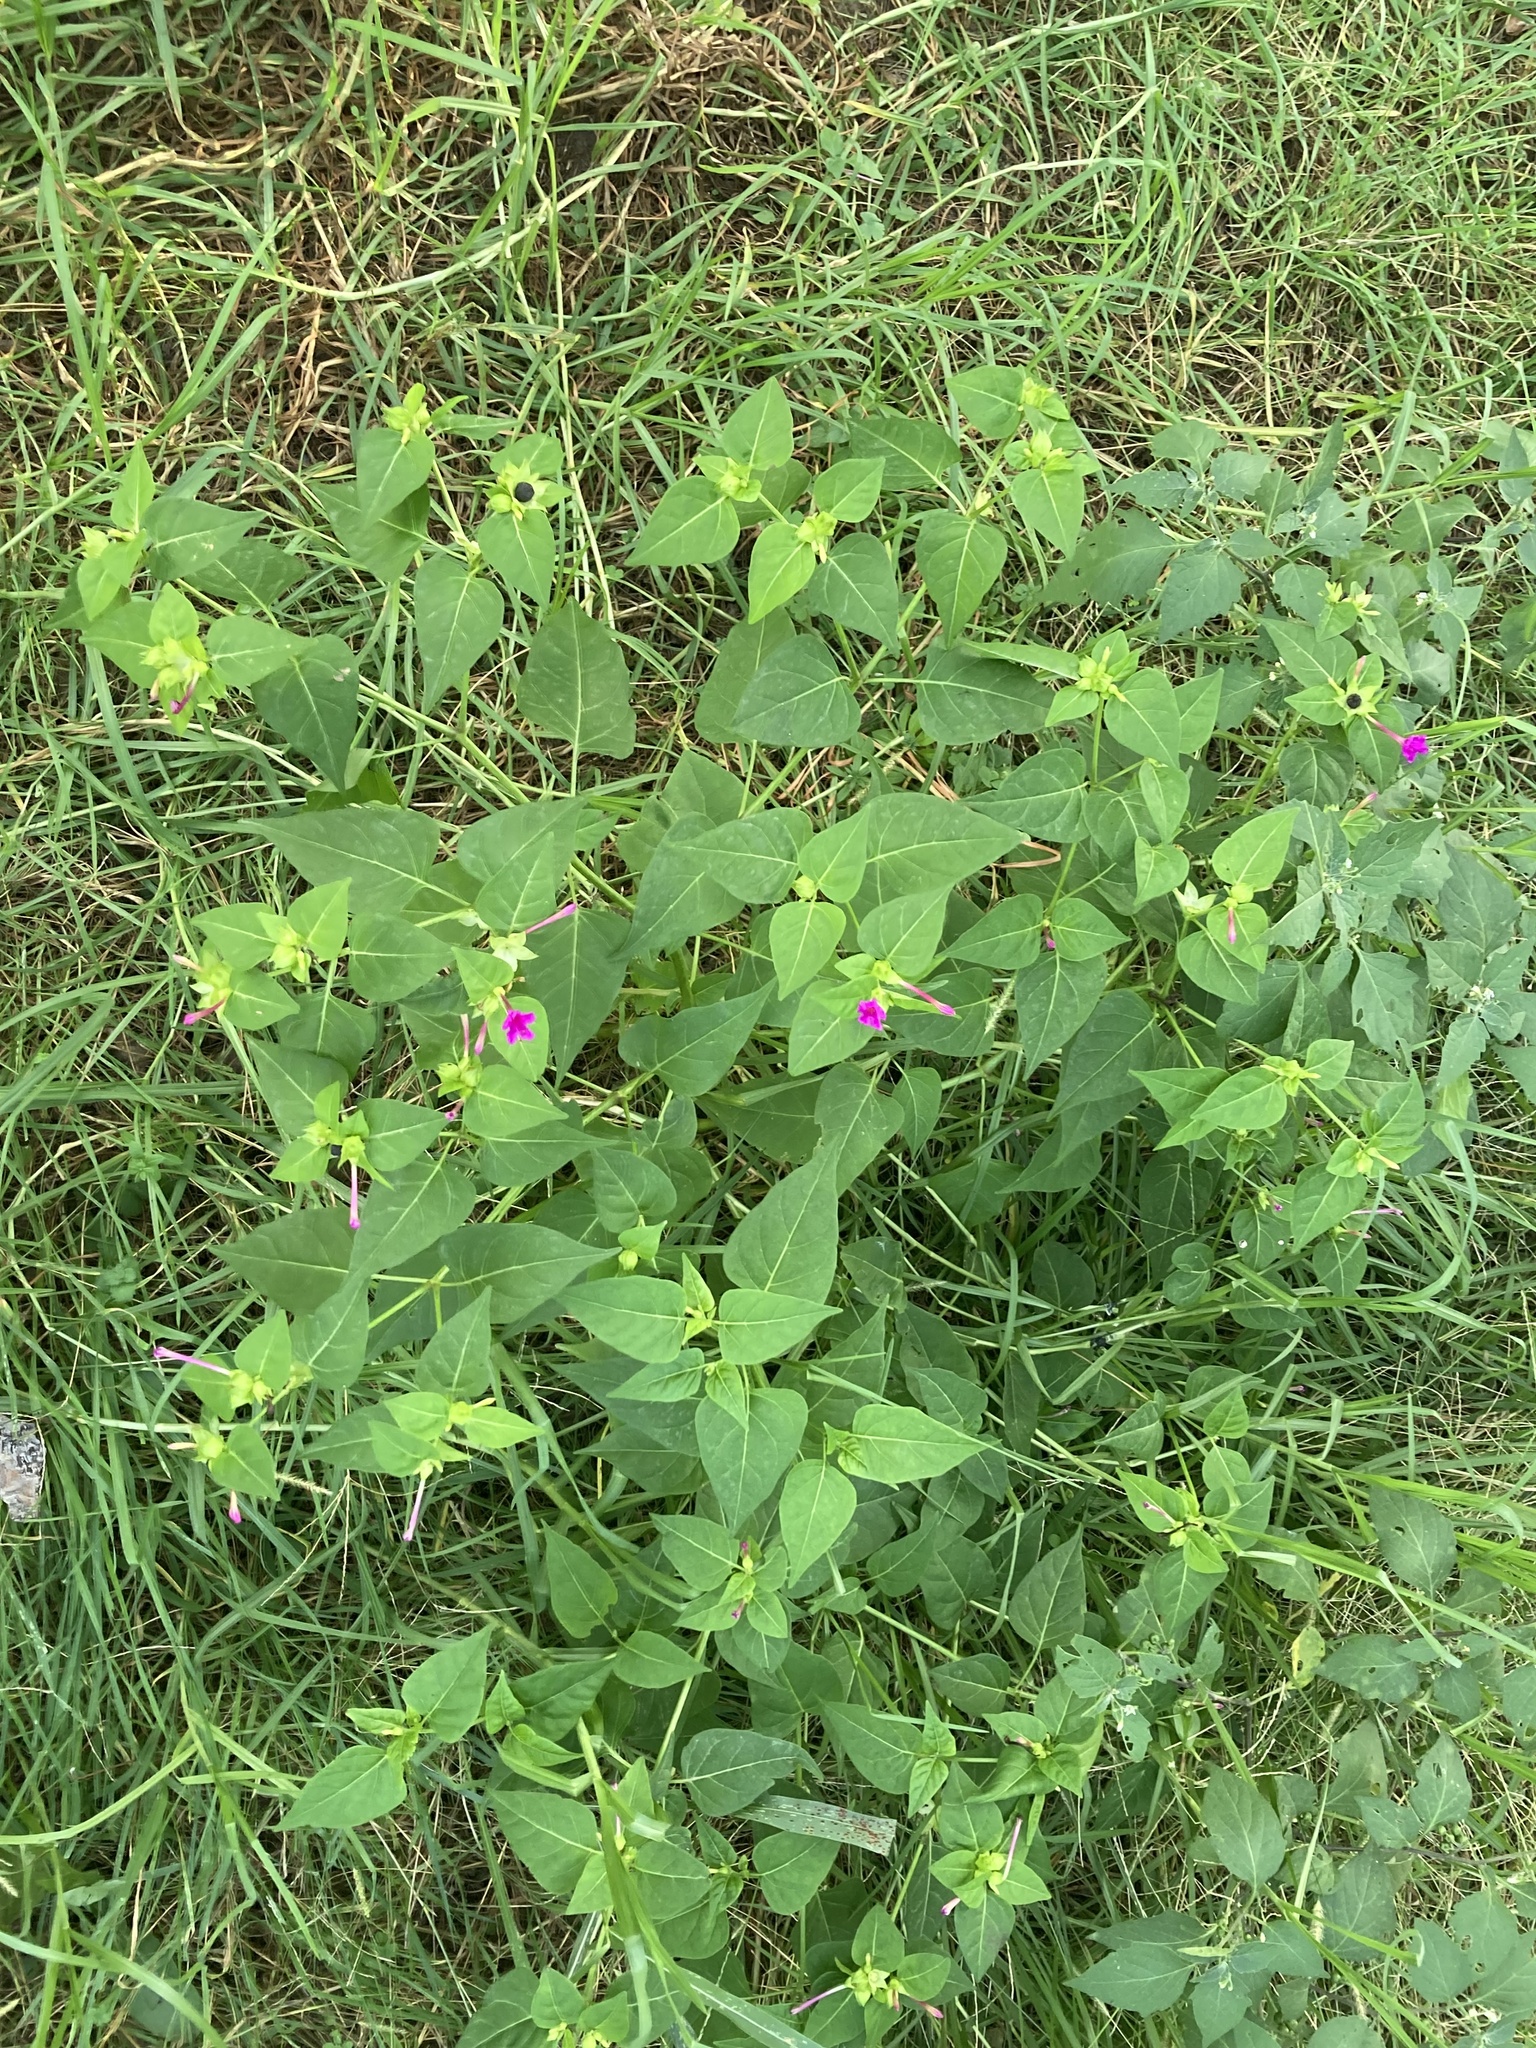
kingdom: Plantae
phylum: Tracheophyta
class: Magnoliopsida
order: Caryophyllales
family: Nyctaginaceae
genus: Mirabilis
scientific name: Mirabilis jalapa
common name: Marvel-of-peru
